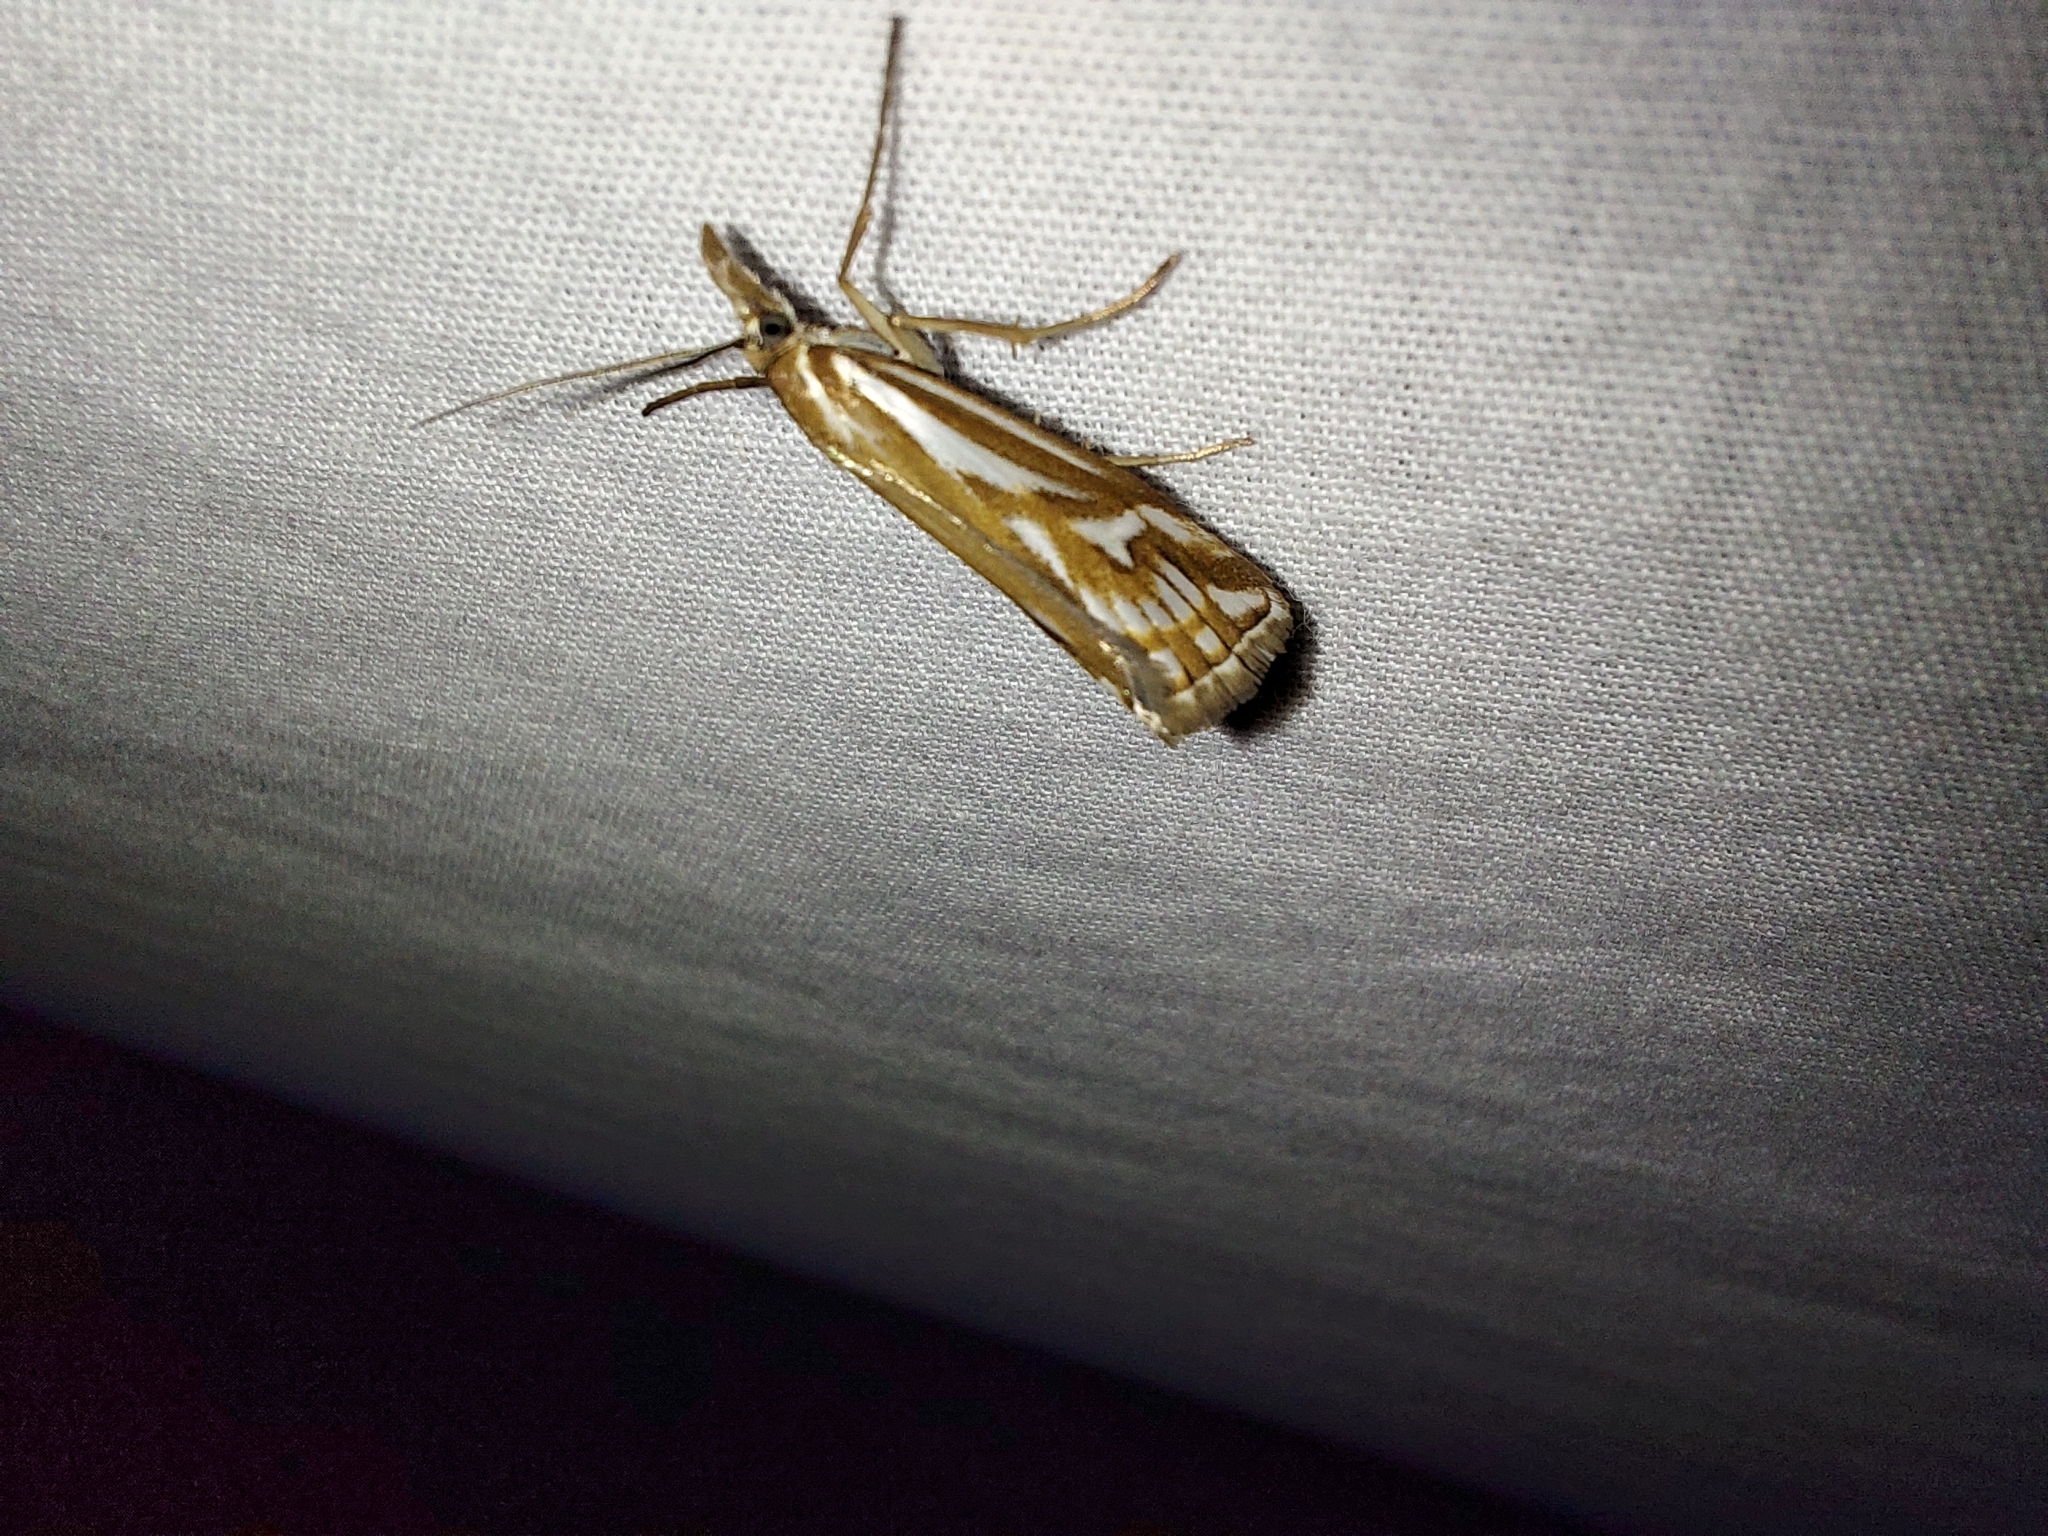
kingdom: Animalia
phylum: Arthropoda
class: Insecta
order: Lepidoptera
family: Crambidae
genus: Hednota
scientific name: Hednota pleniferellus
